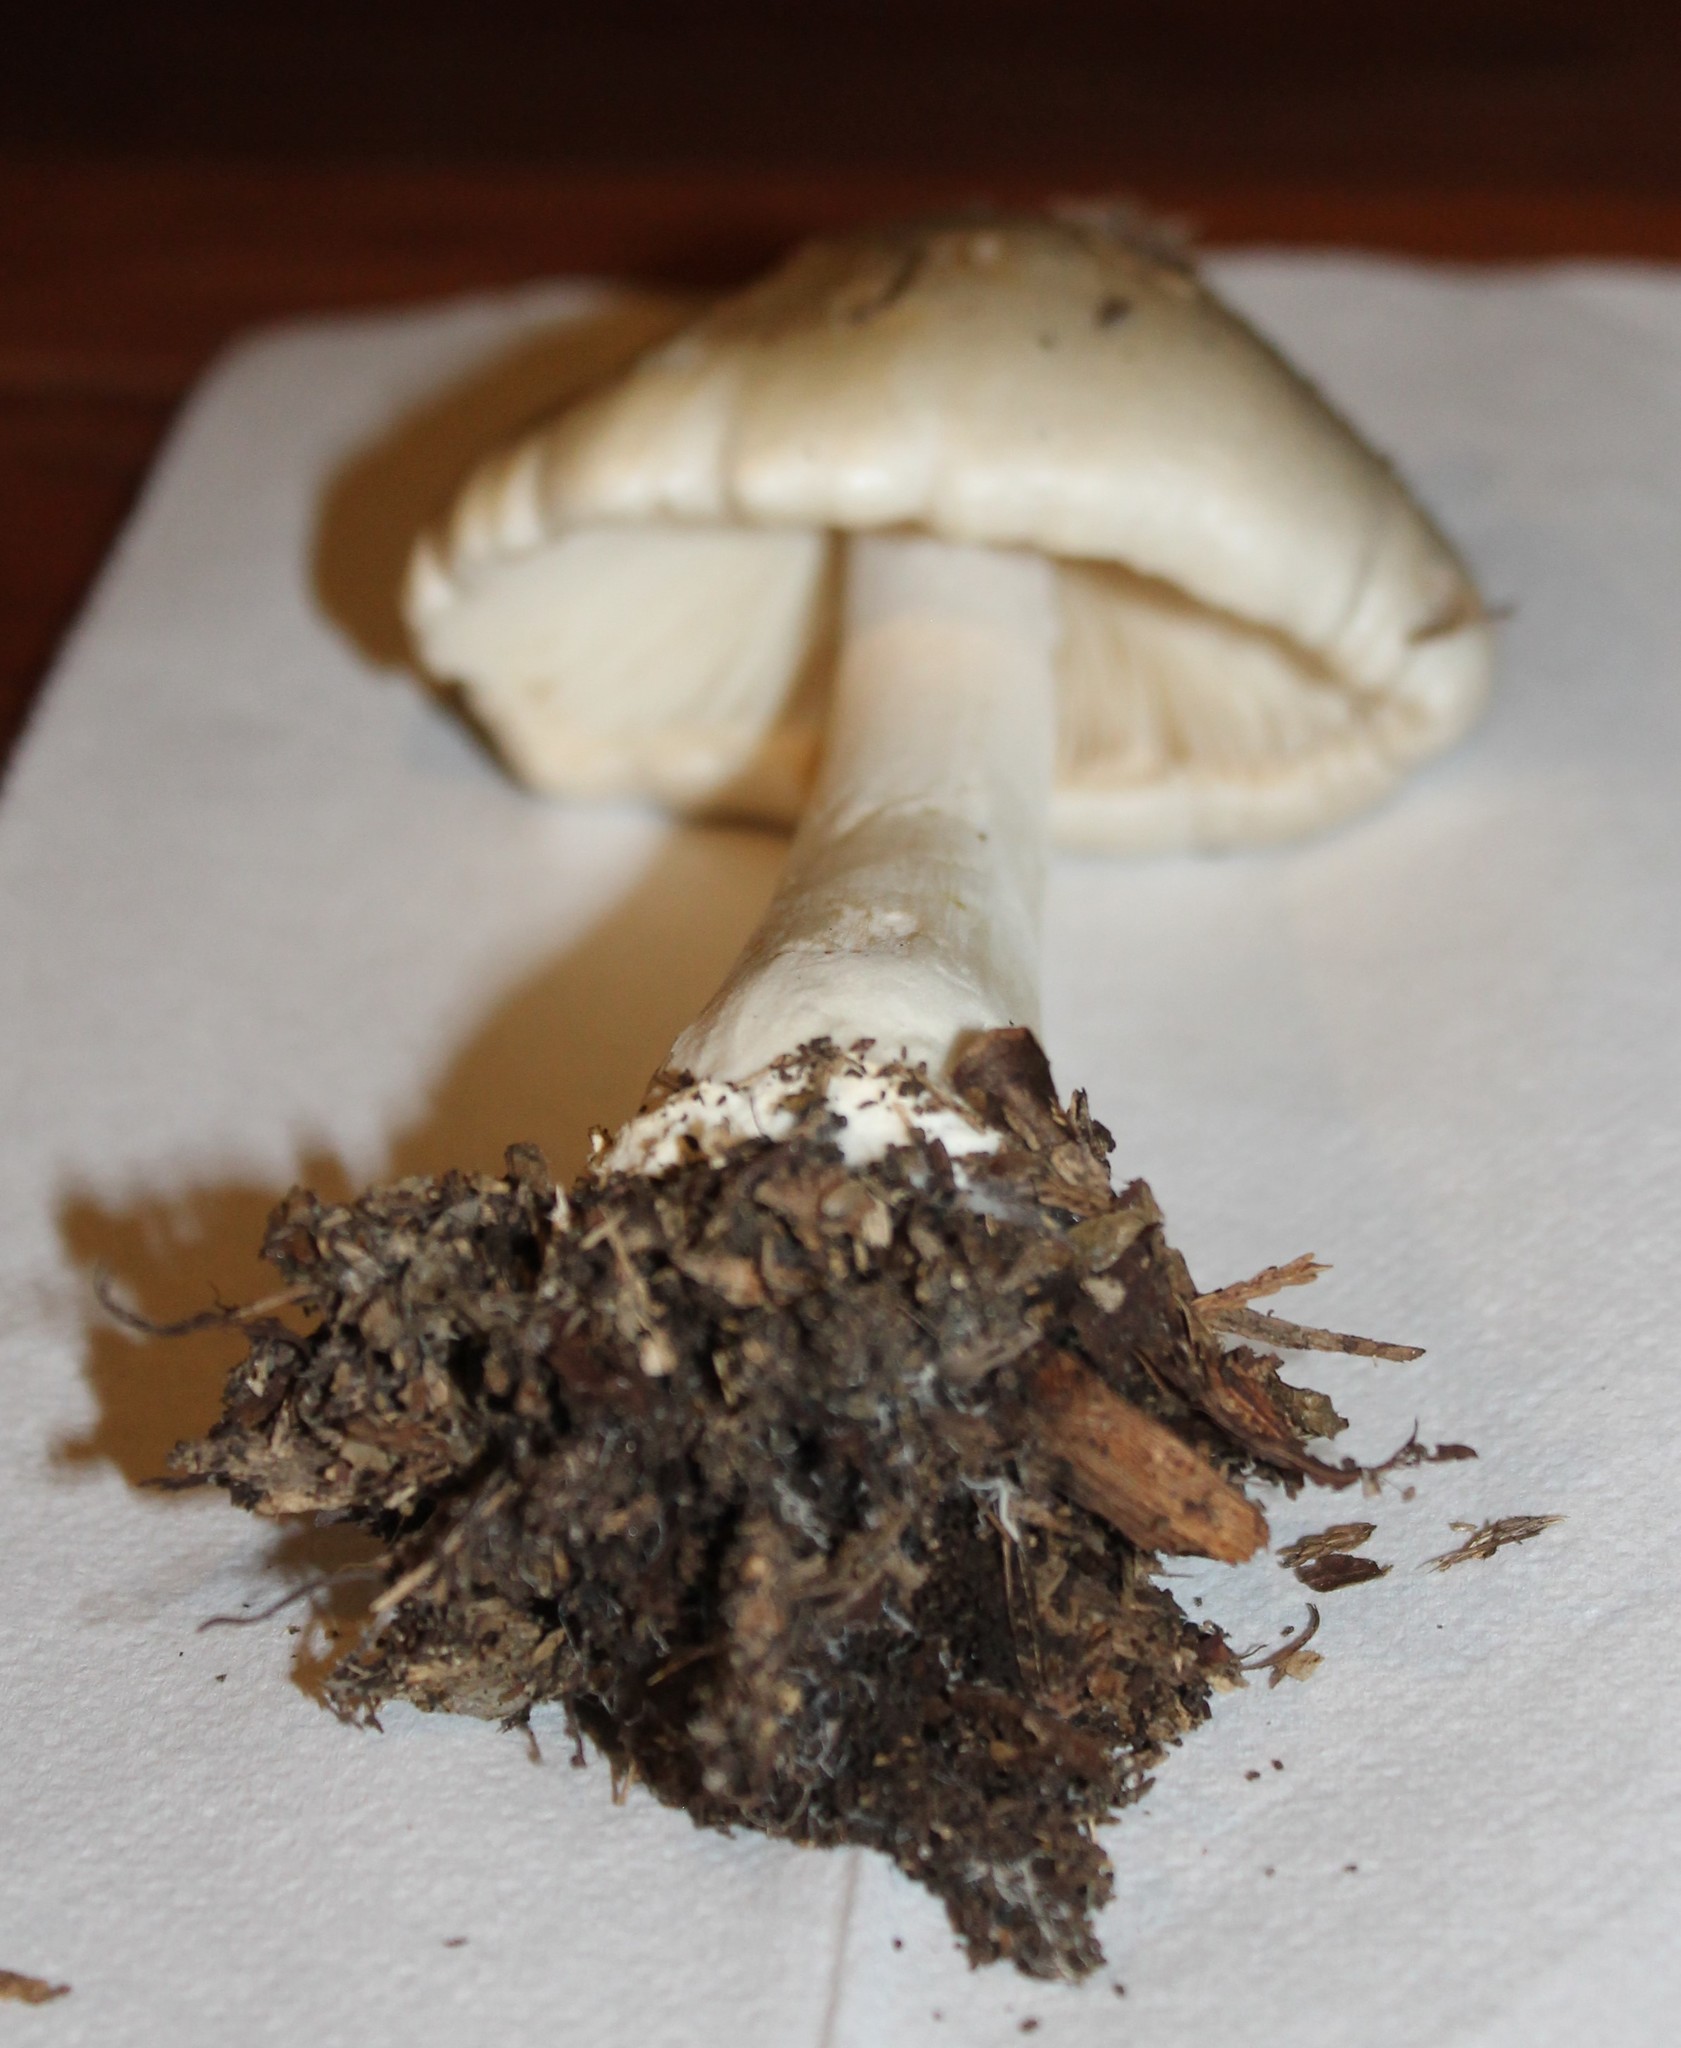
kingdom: Fungi
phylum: Basidiomycota
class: Agaricomycetes
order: Agaricales
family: Pluteaceae
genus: Volvopluteus
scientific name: Volvopluteus gloiocephalus
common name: Stubble rosegill
